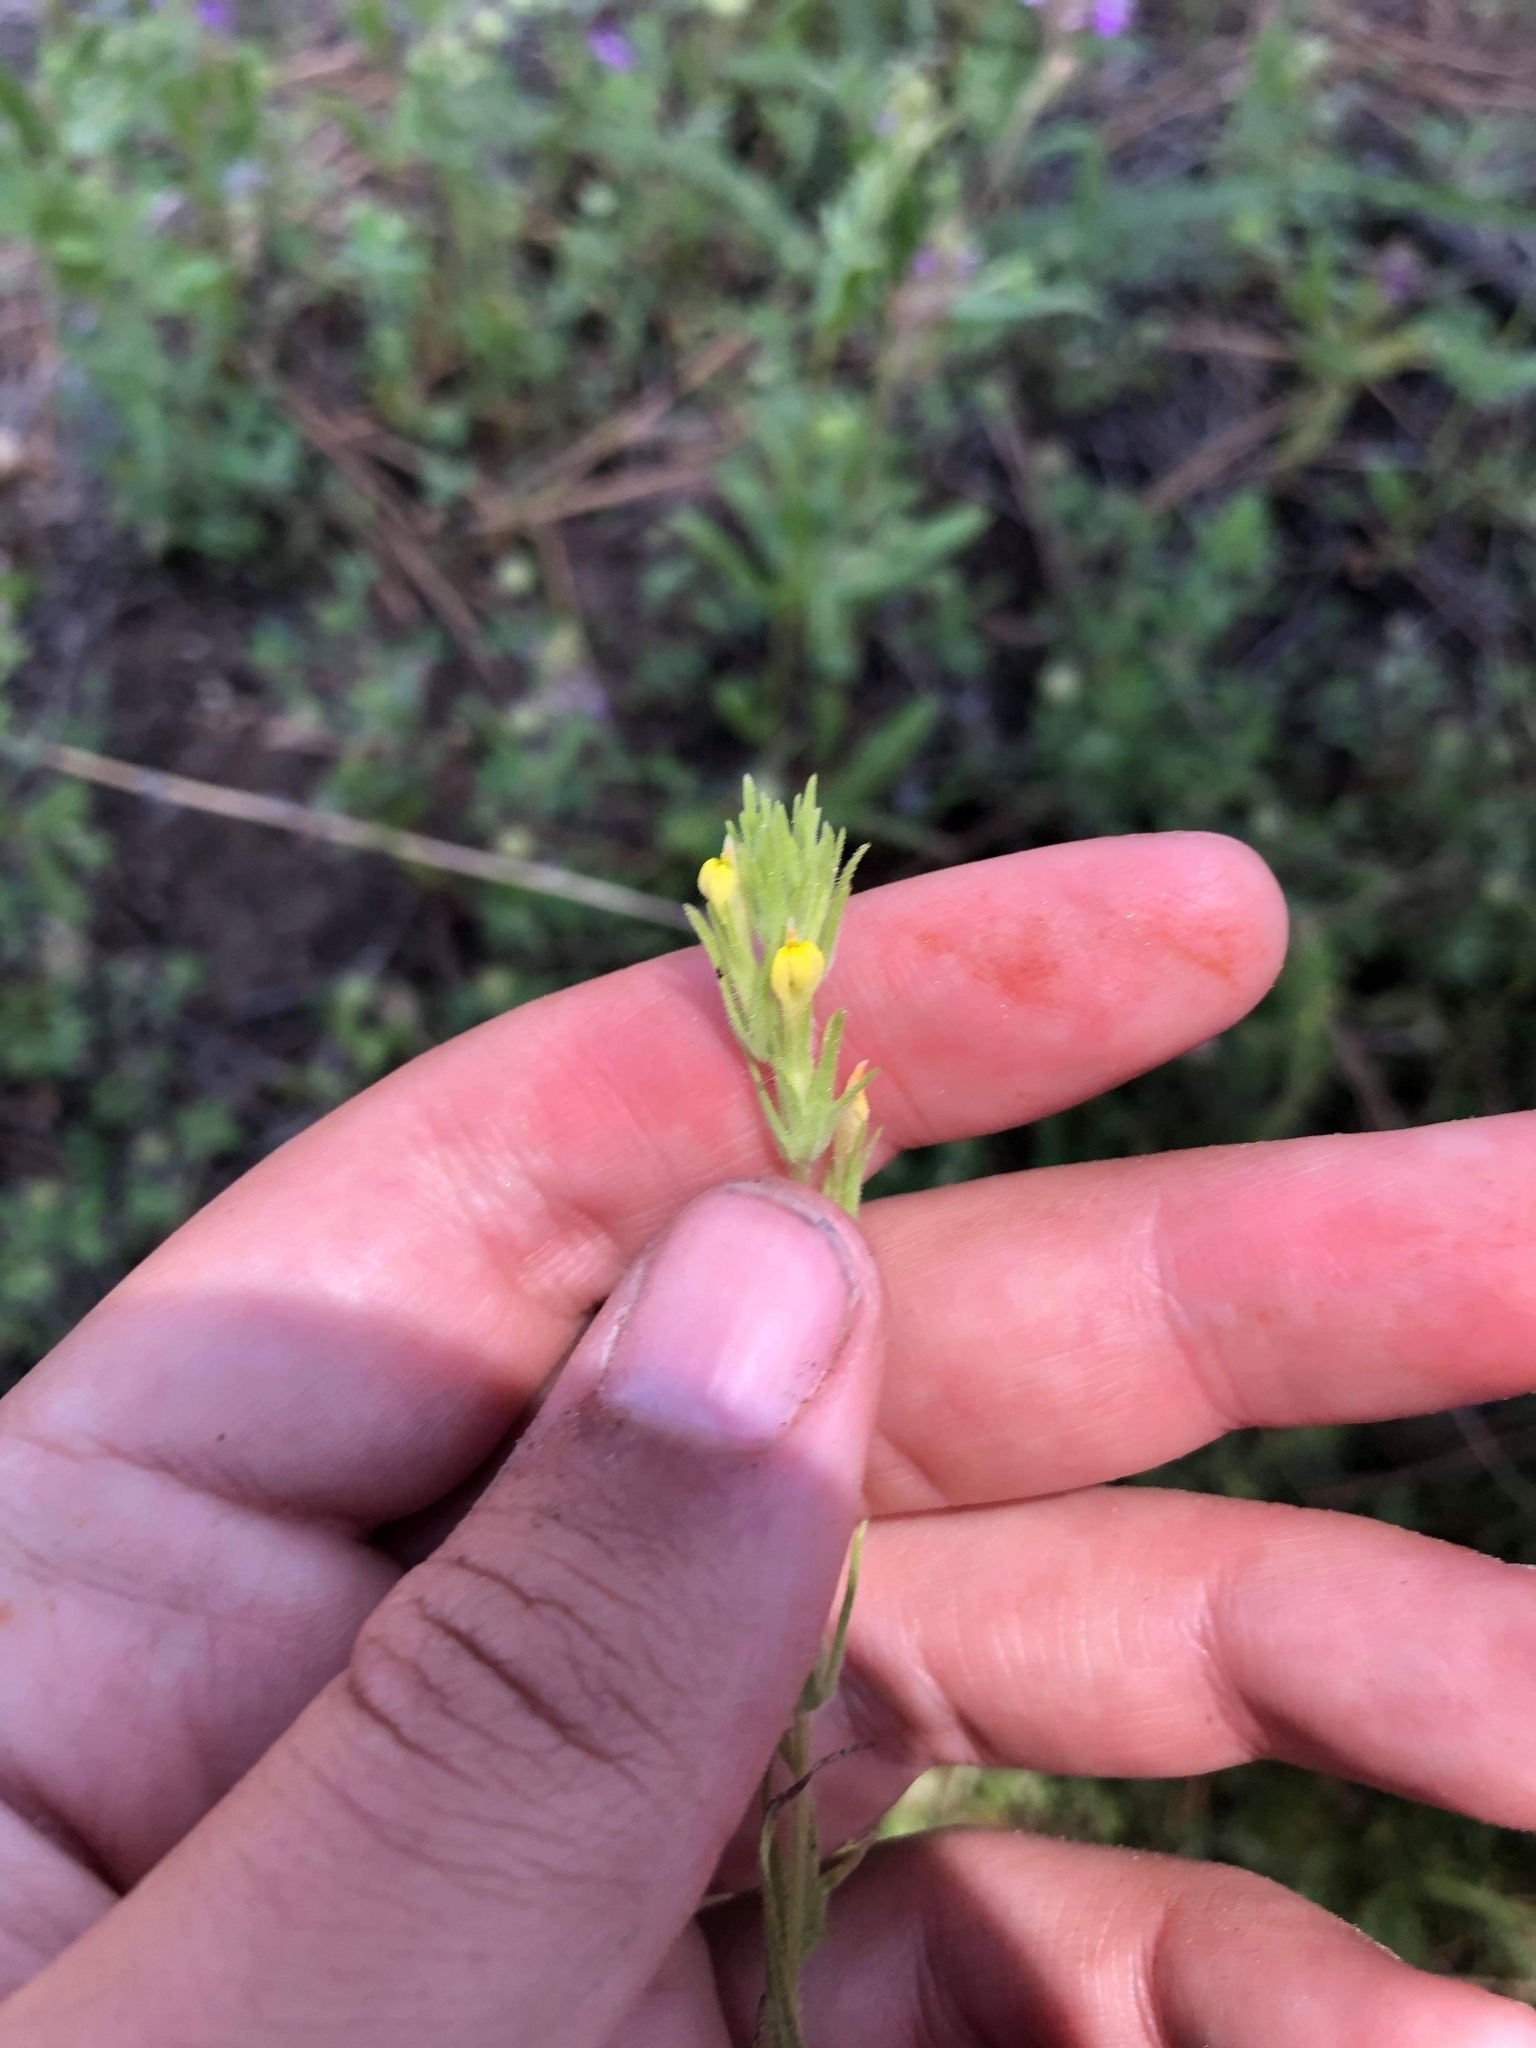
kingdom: Plantae
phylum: Tracheophyta
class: Magnoliopsida
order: Lamiales
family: Orobanchaceae
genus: Castilleja
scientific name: Castilleja tenuis
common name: Hairy indian paintbrush
